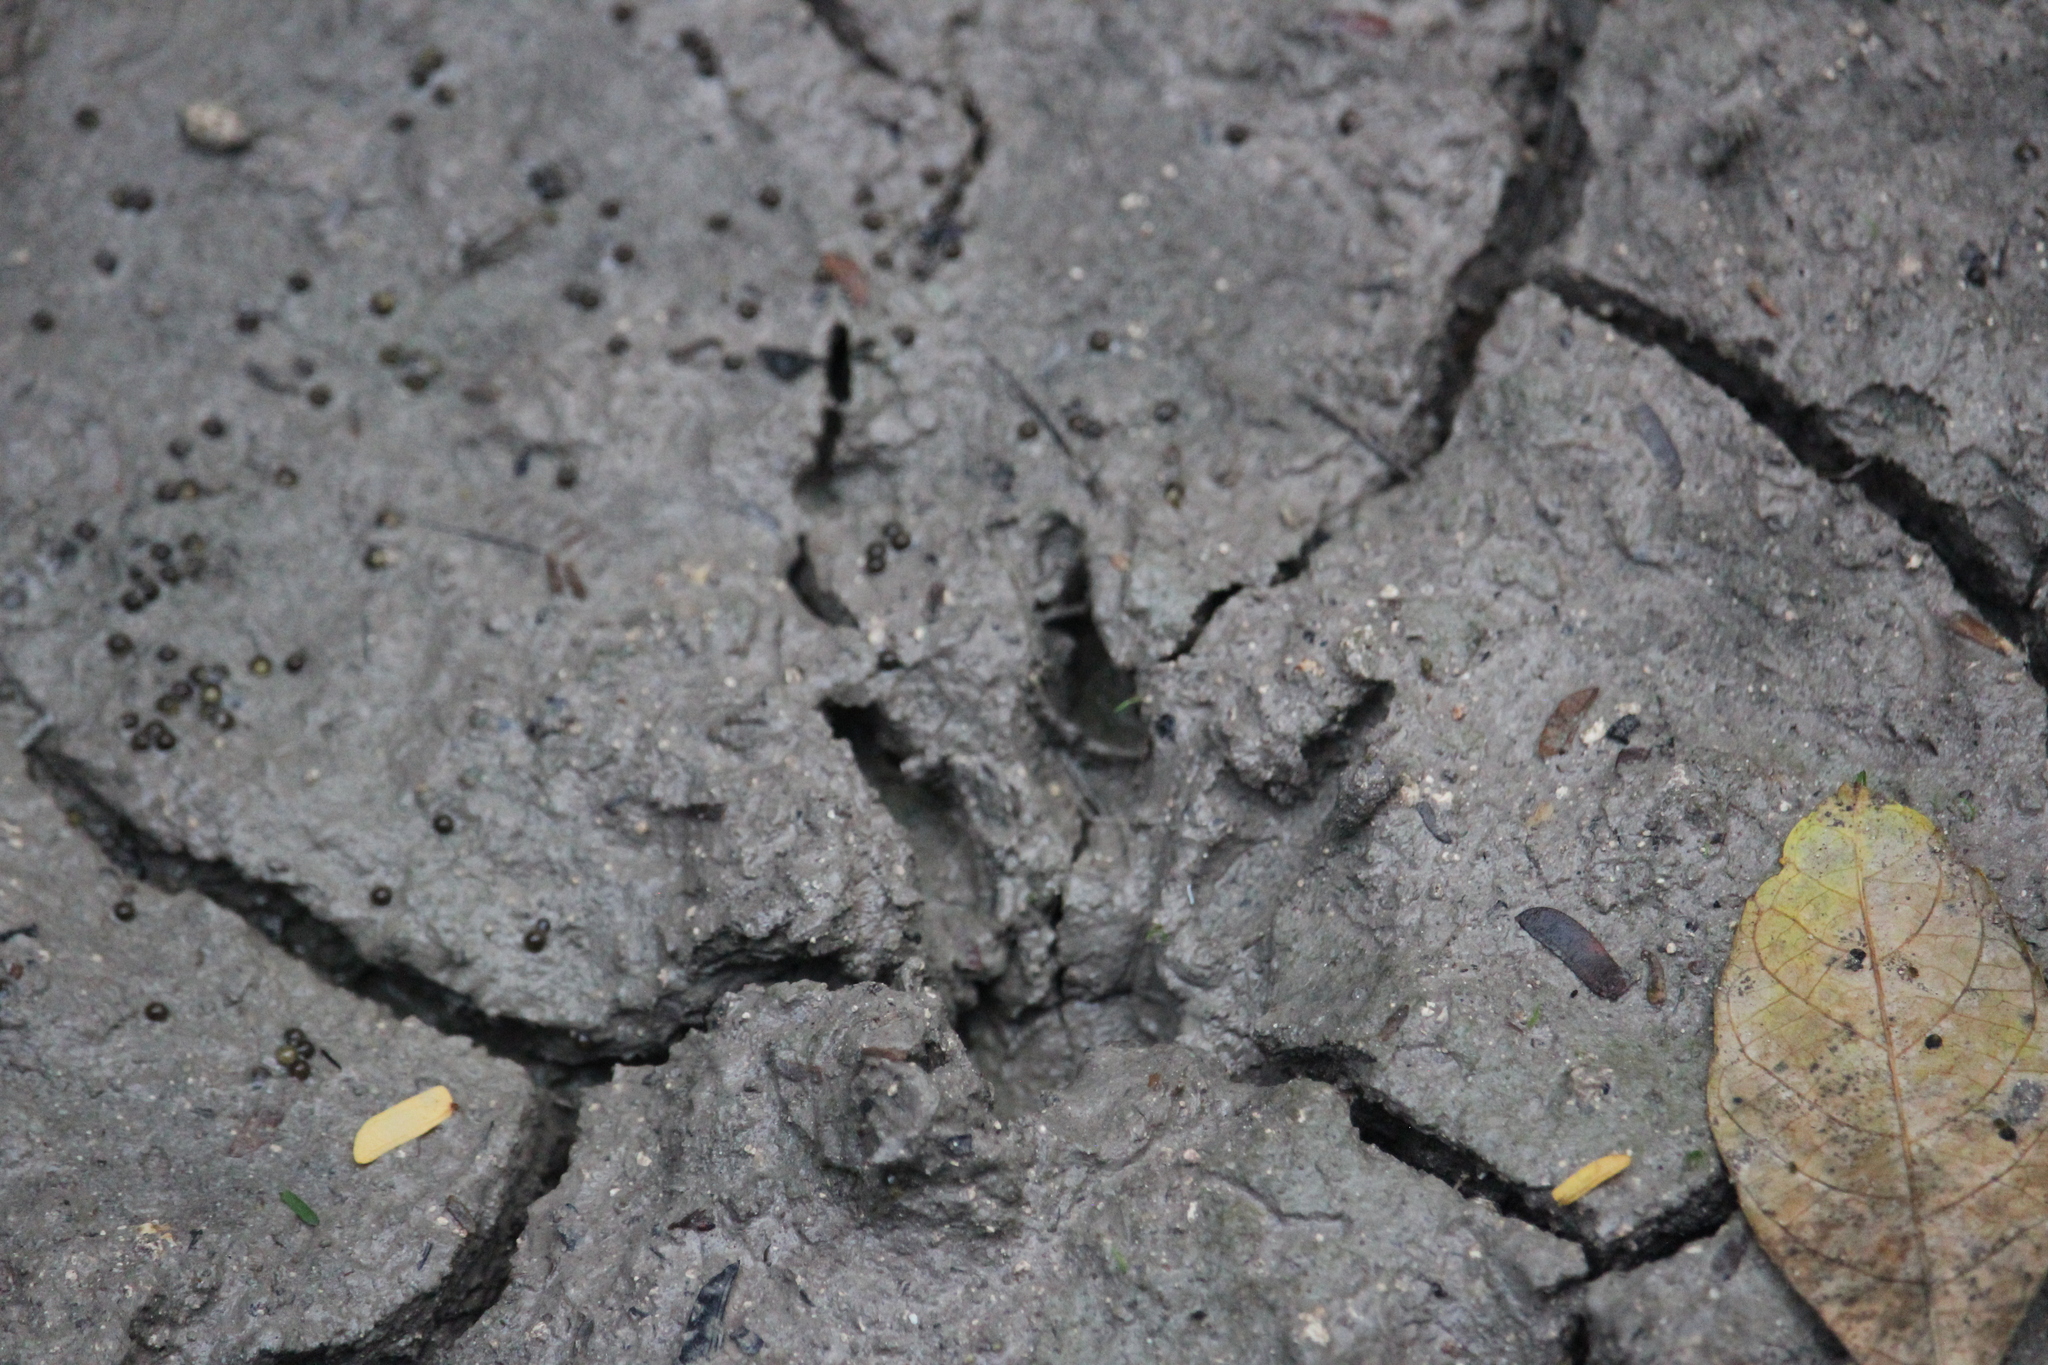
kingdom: Animalia
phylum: Chordata
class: Mammalia
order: Carnivora
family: Procyonidae
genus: Procyon
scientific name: Procyon lotor
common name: Raccoon
